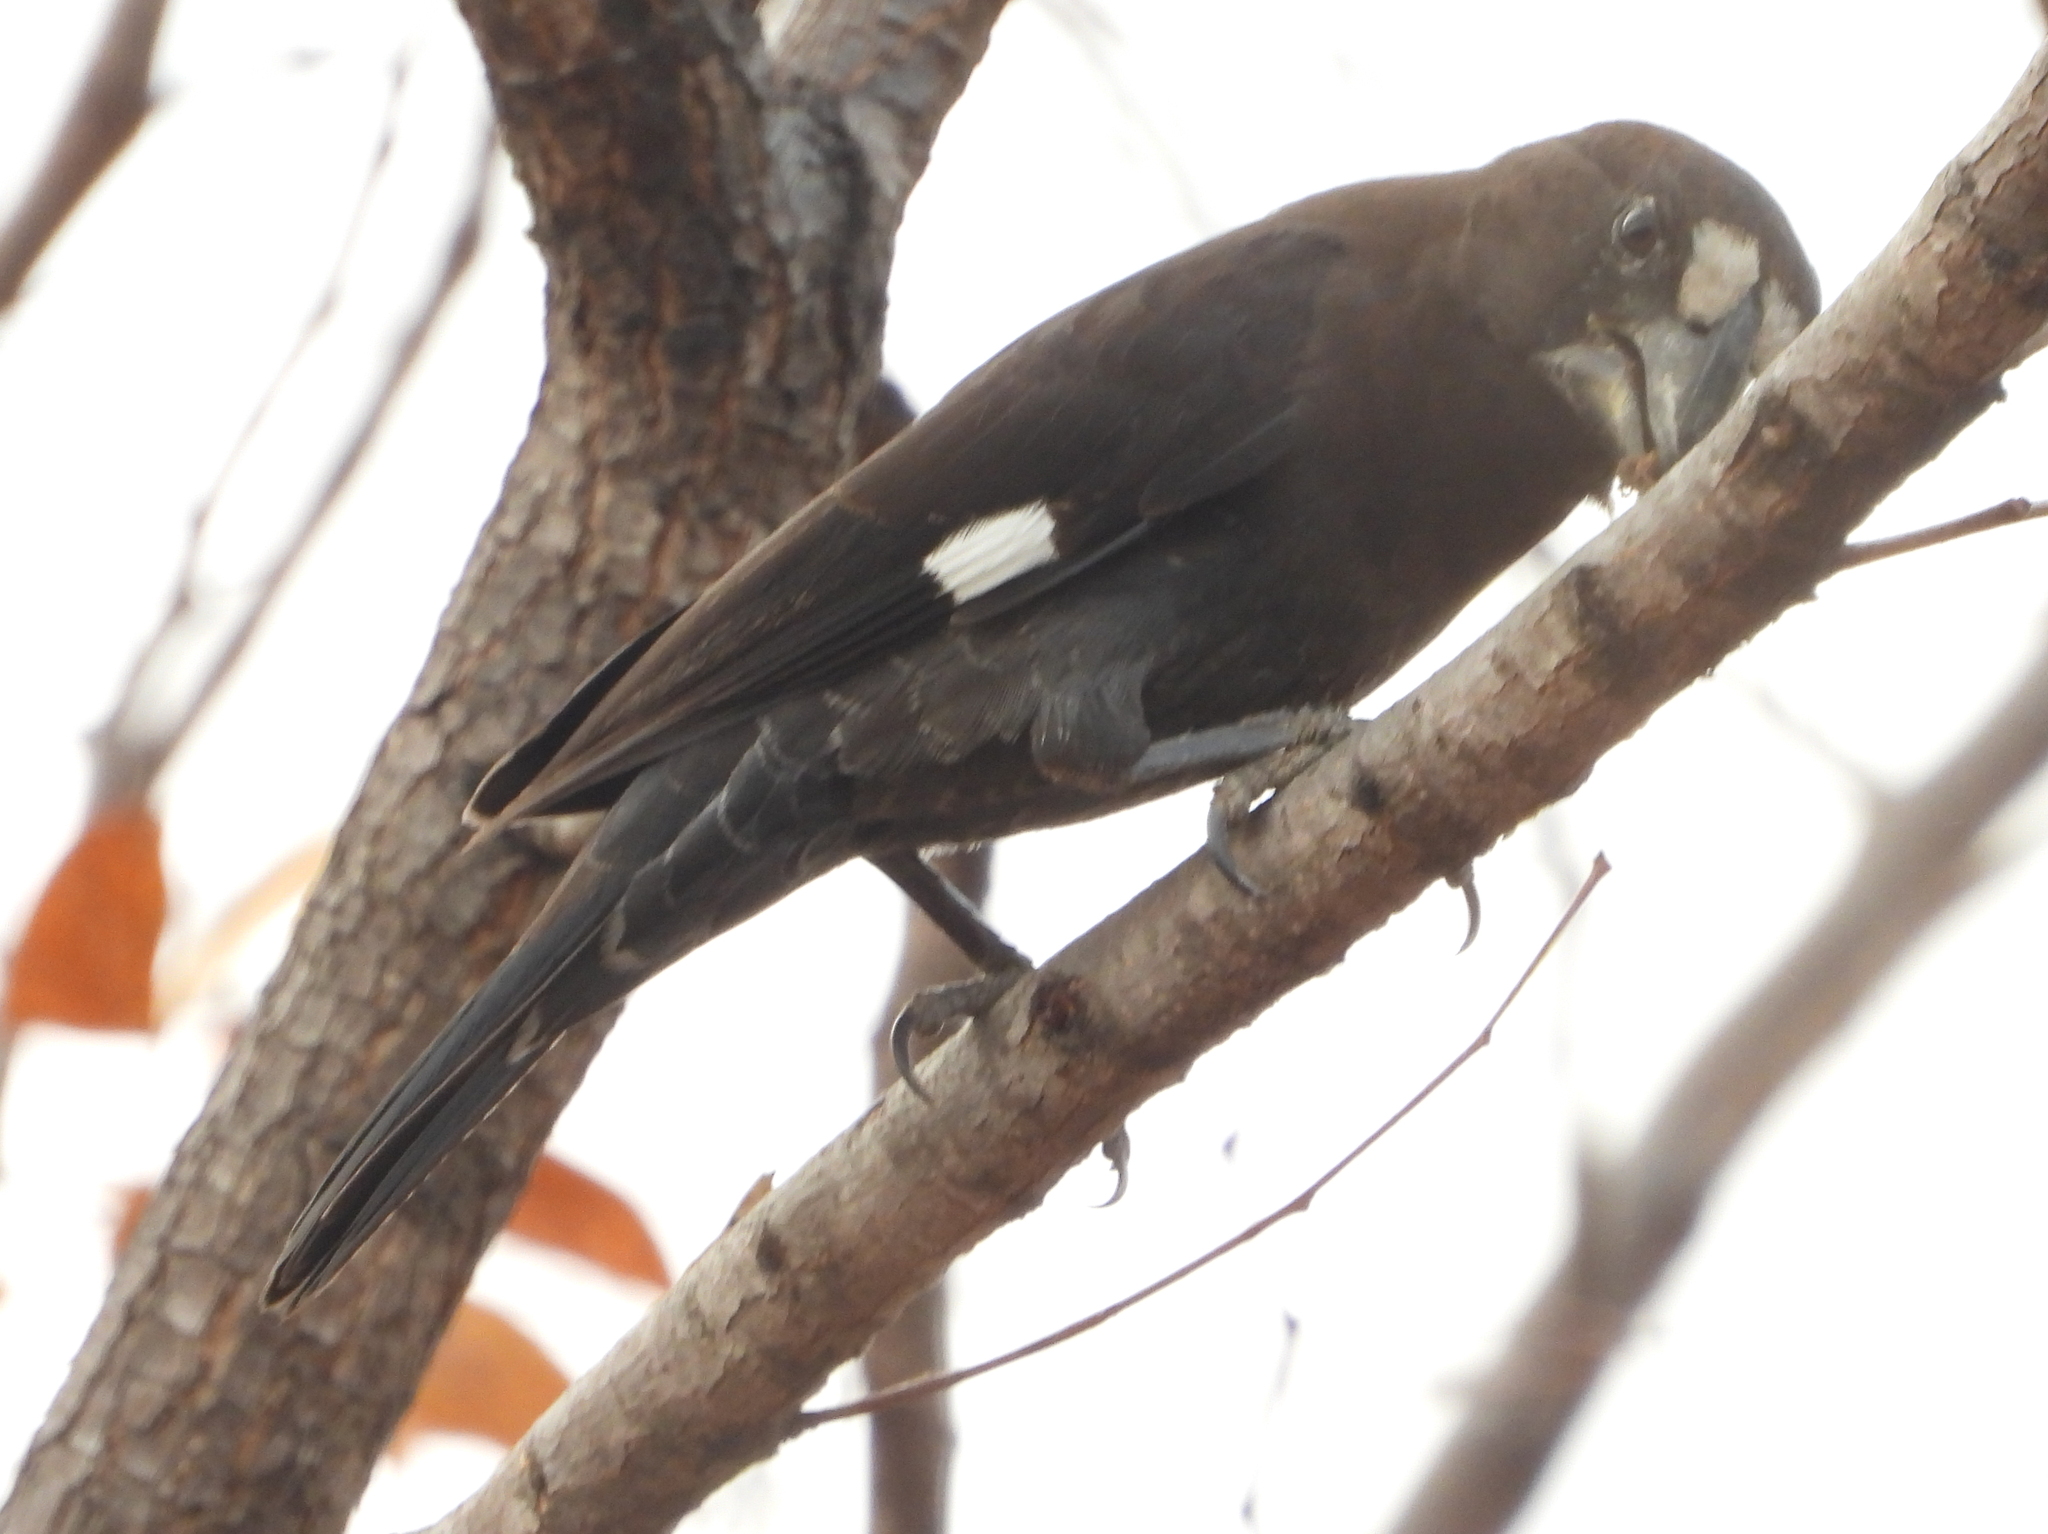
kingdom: Animalia
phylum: Chordata
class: Aves
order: Passeriformes
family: Ploceidae
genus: Amblyospiza
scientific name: Amblyospiza albifrons
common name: Thick-billed weaver
